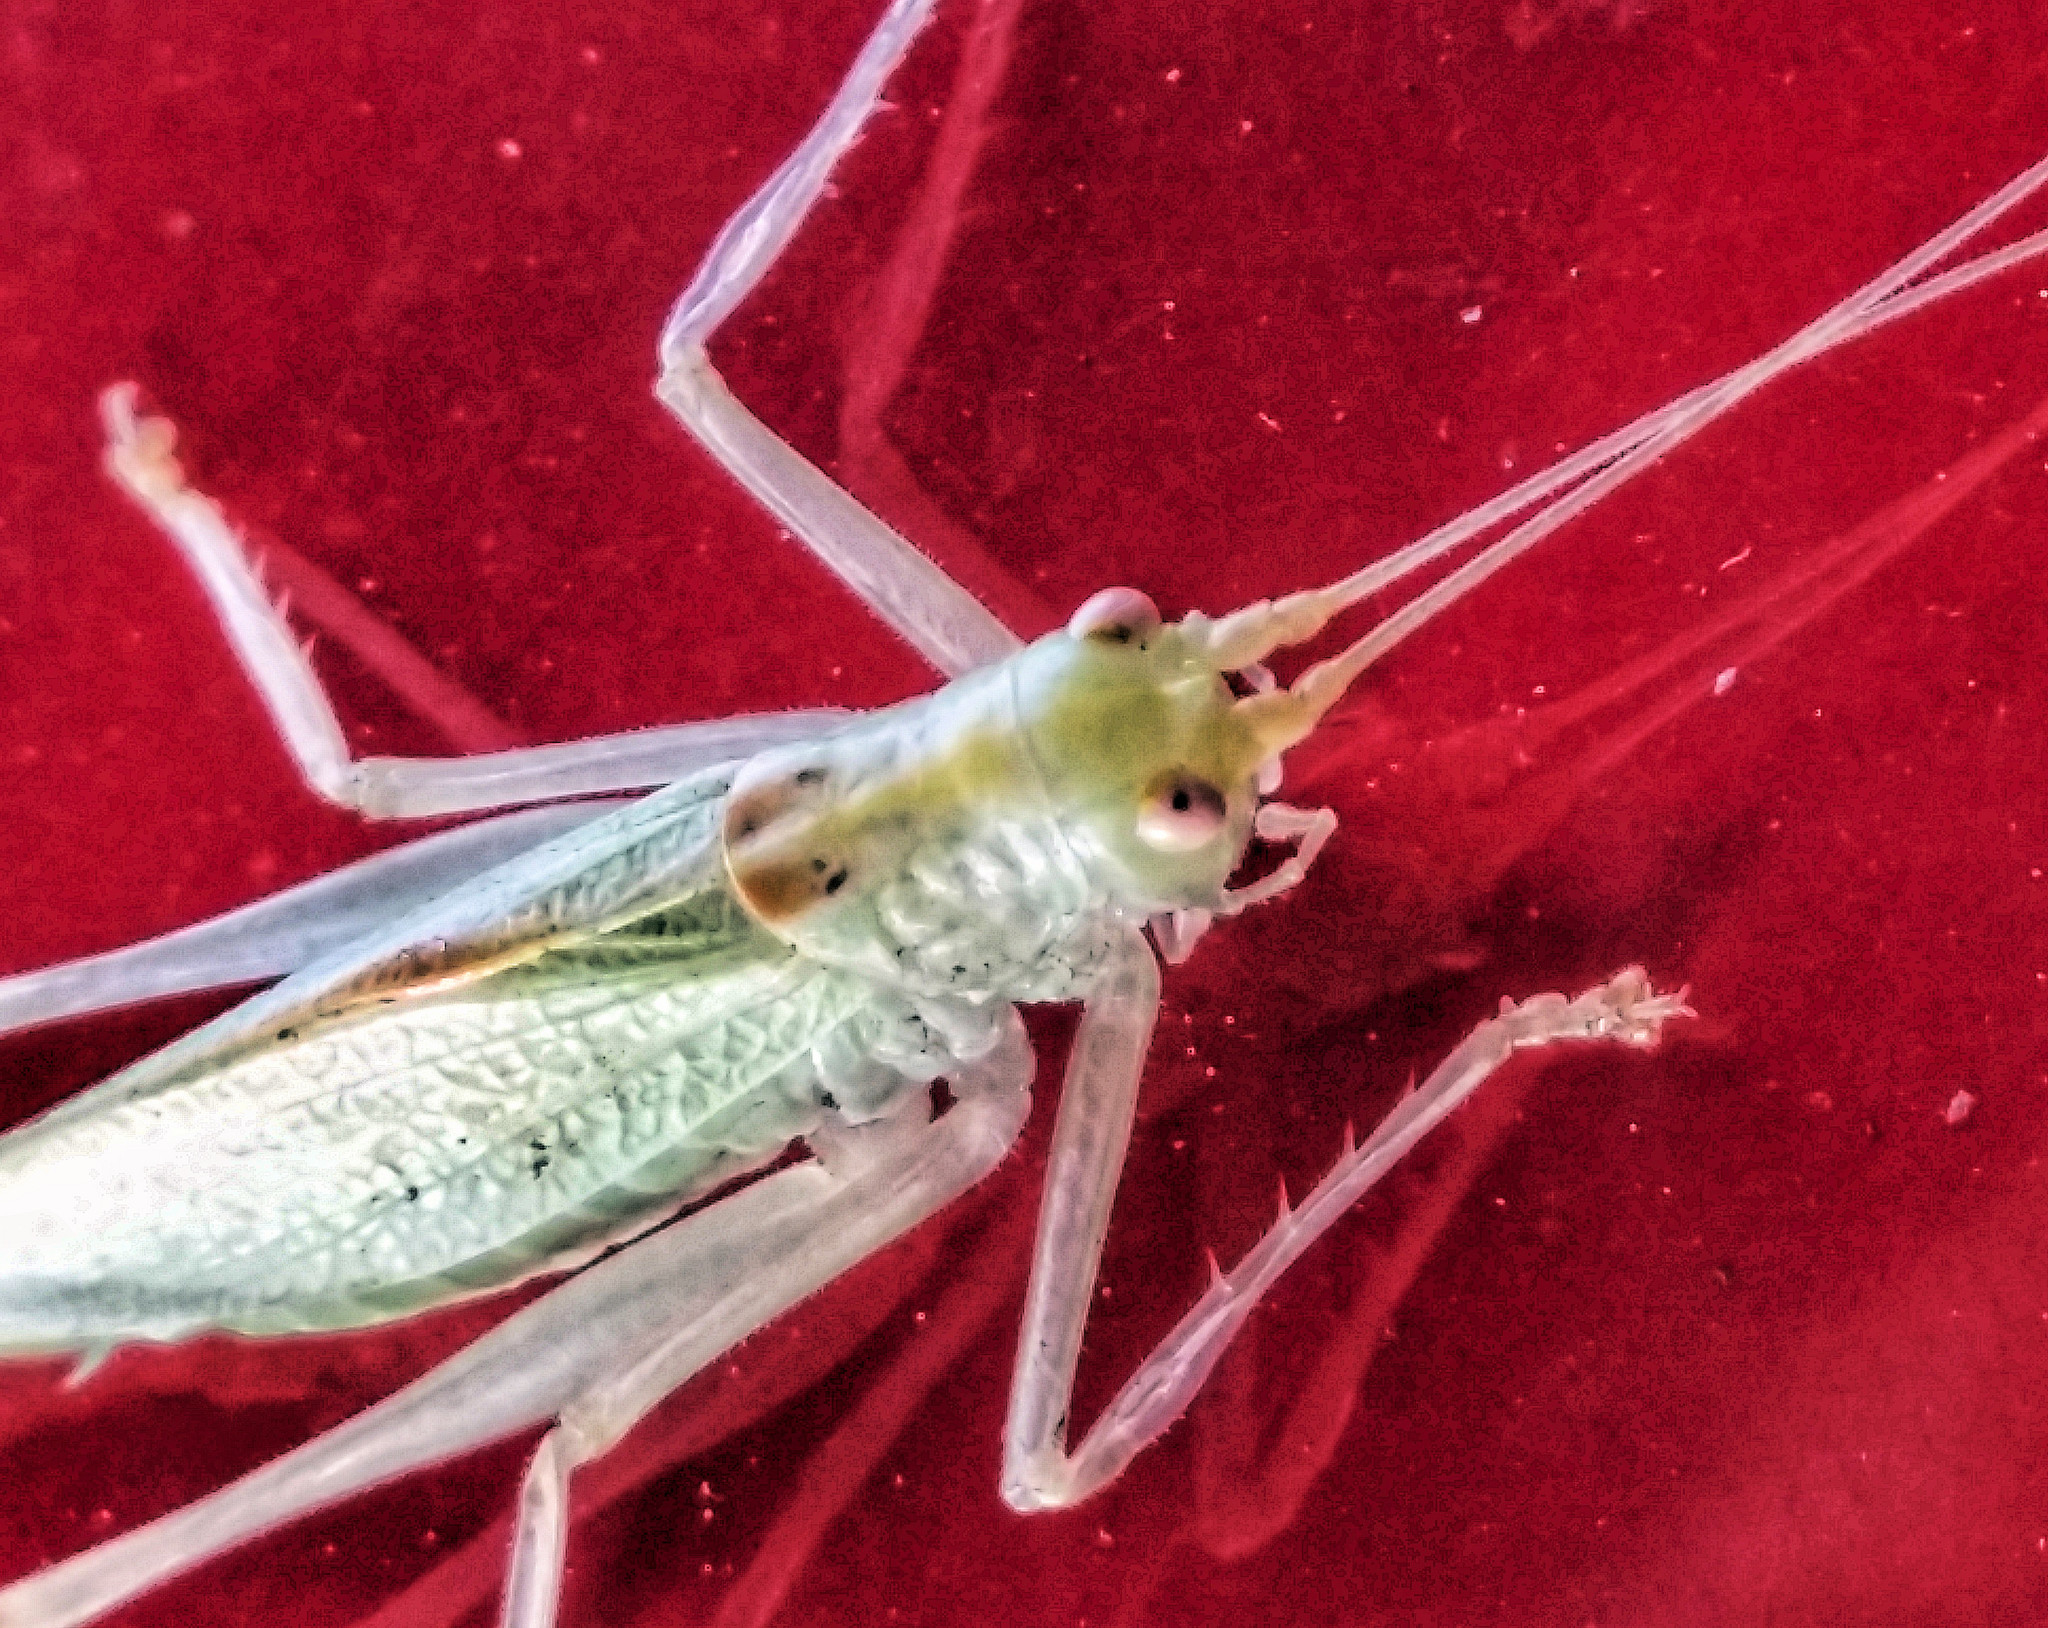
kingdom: Animalia
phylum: Arthropoda
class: Insecta
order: Orthoptera
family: Tettigoniidae
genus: Meconema
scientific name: Meconema thalassinum
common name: Oak bush-cricket
